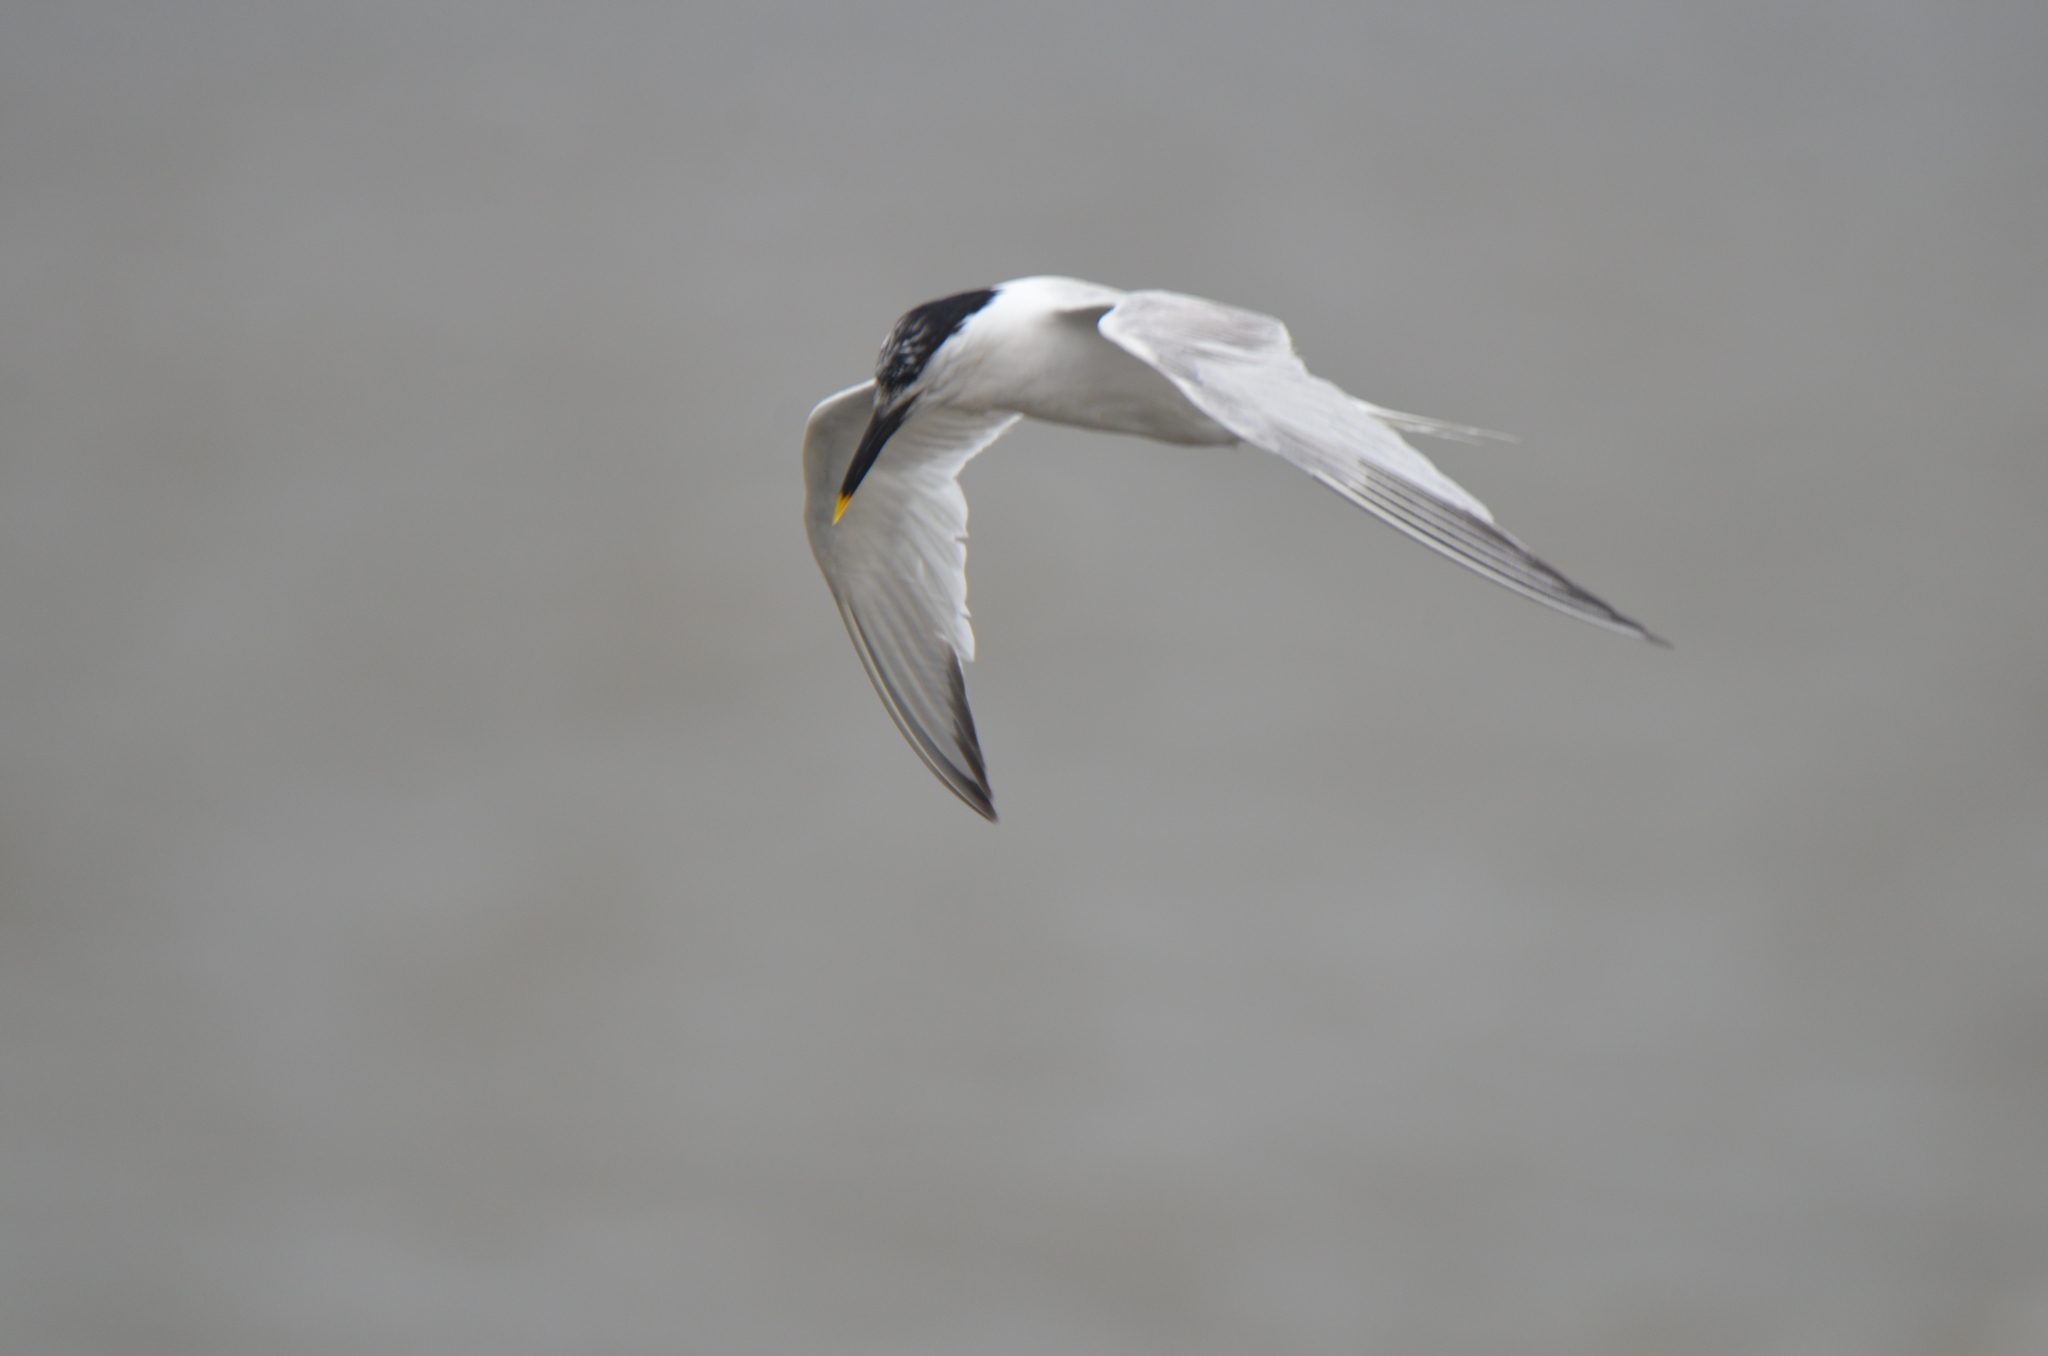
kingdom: Animalia
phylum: Chordata
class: Aves
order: Charadriiformes
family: Laridae
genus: Thalasseus
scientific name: Thalasseus sandvicensis
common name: Sandwich tern
